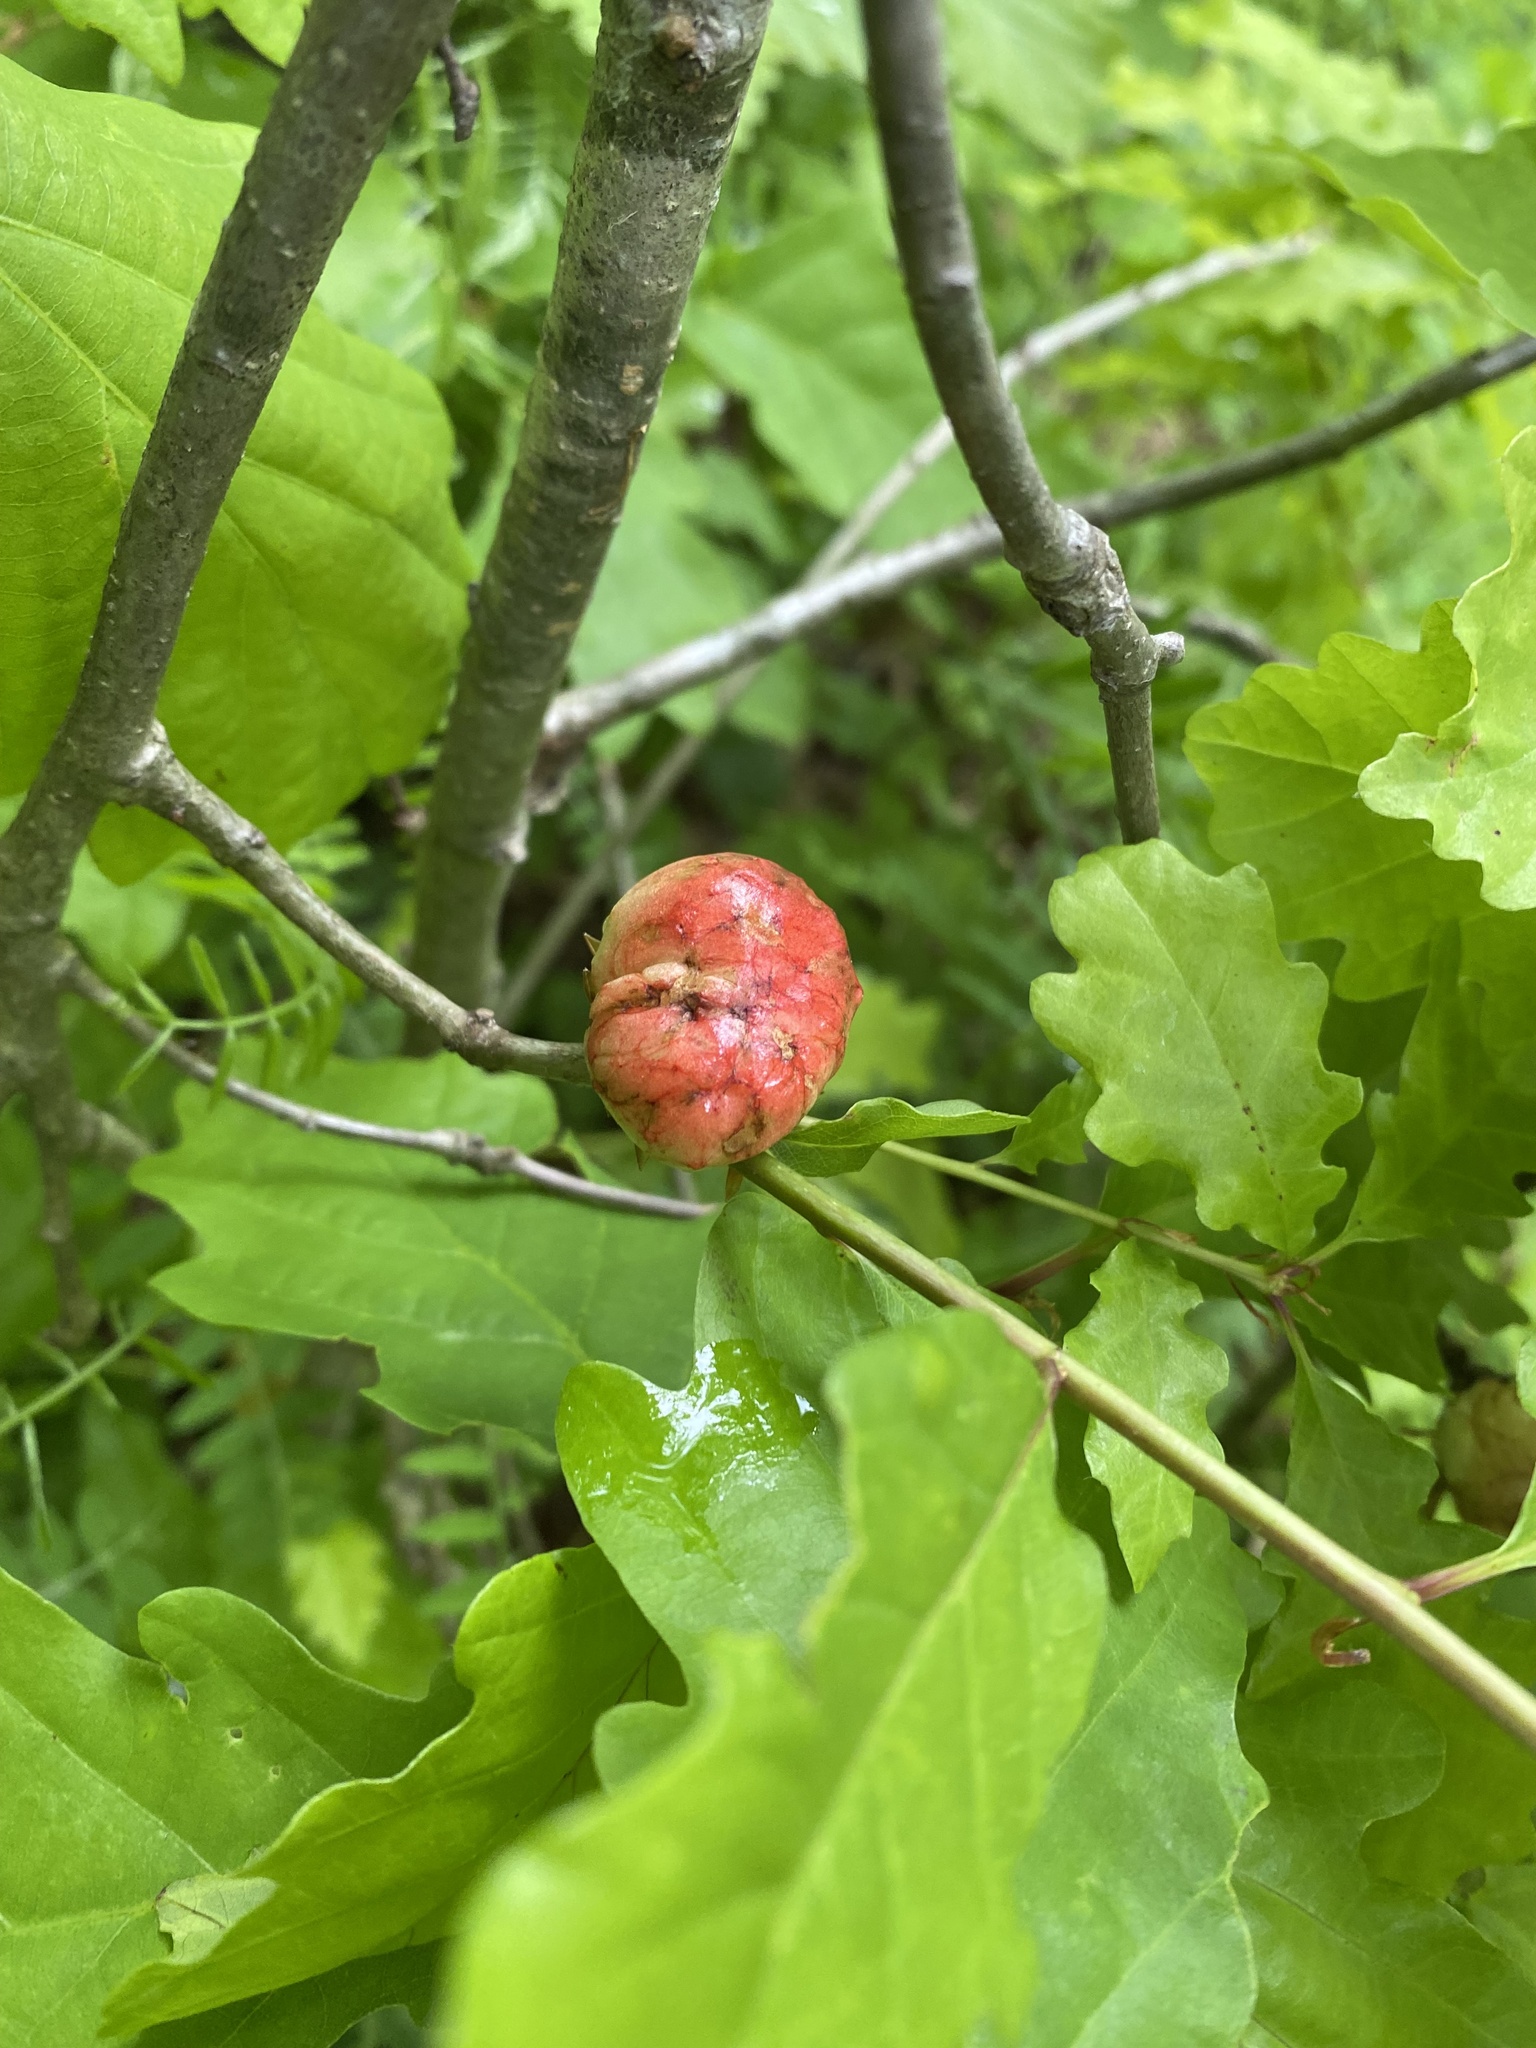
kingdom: Animalia
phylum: Arthropoda
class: Insecta
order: Hymenoptera
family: Cynipidae
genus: Biorhiza
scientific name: Biorhiza pallida
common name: Oak apple
